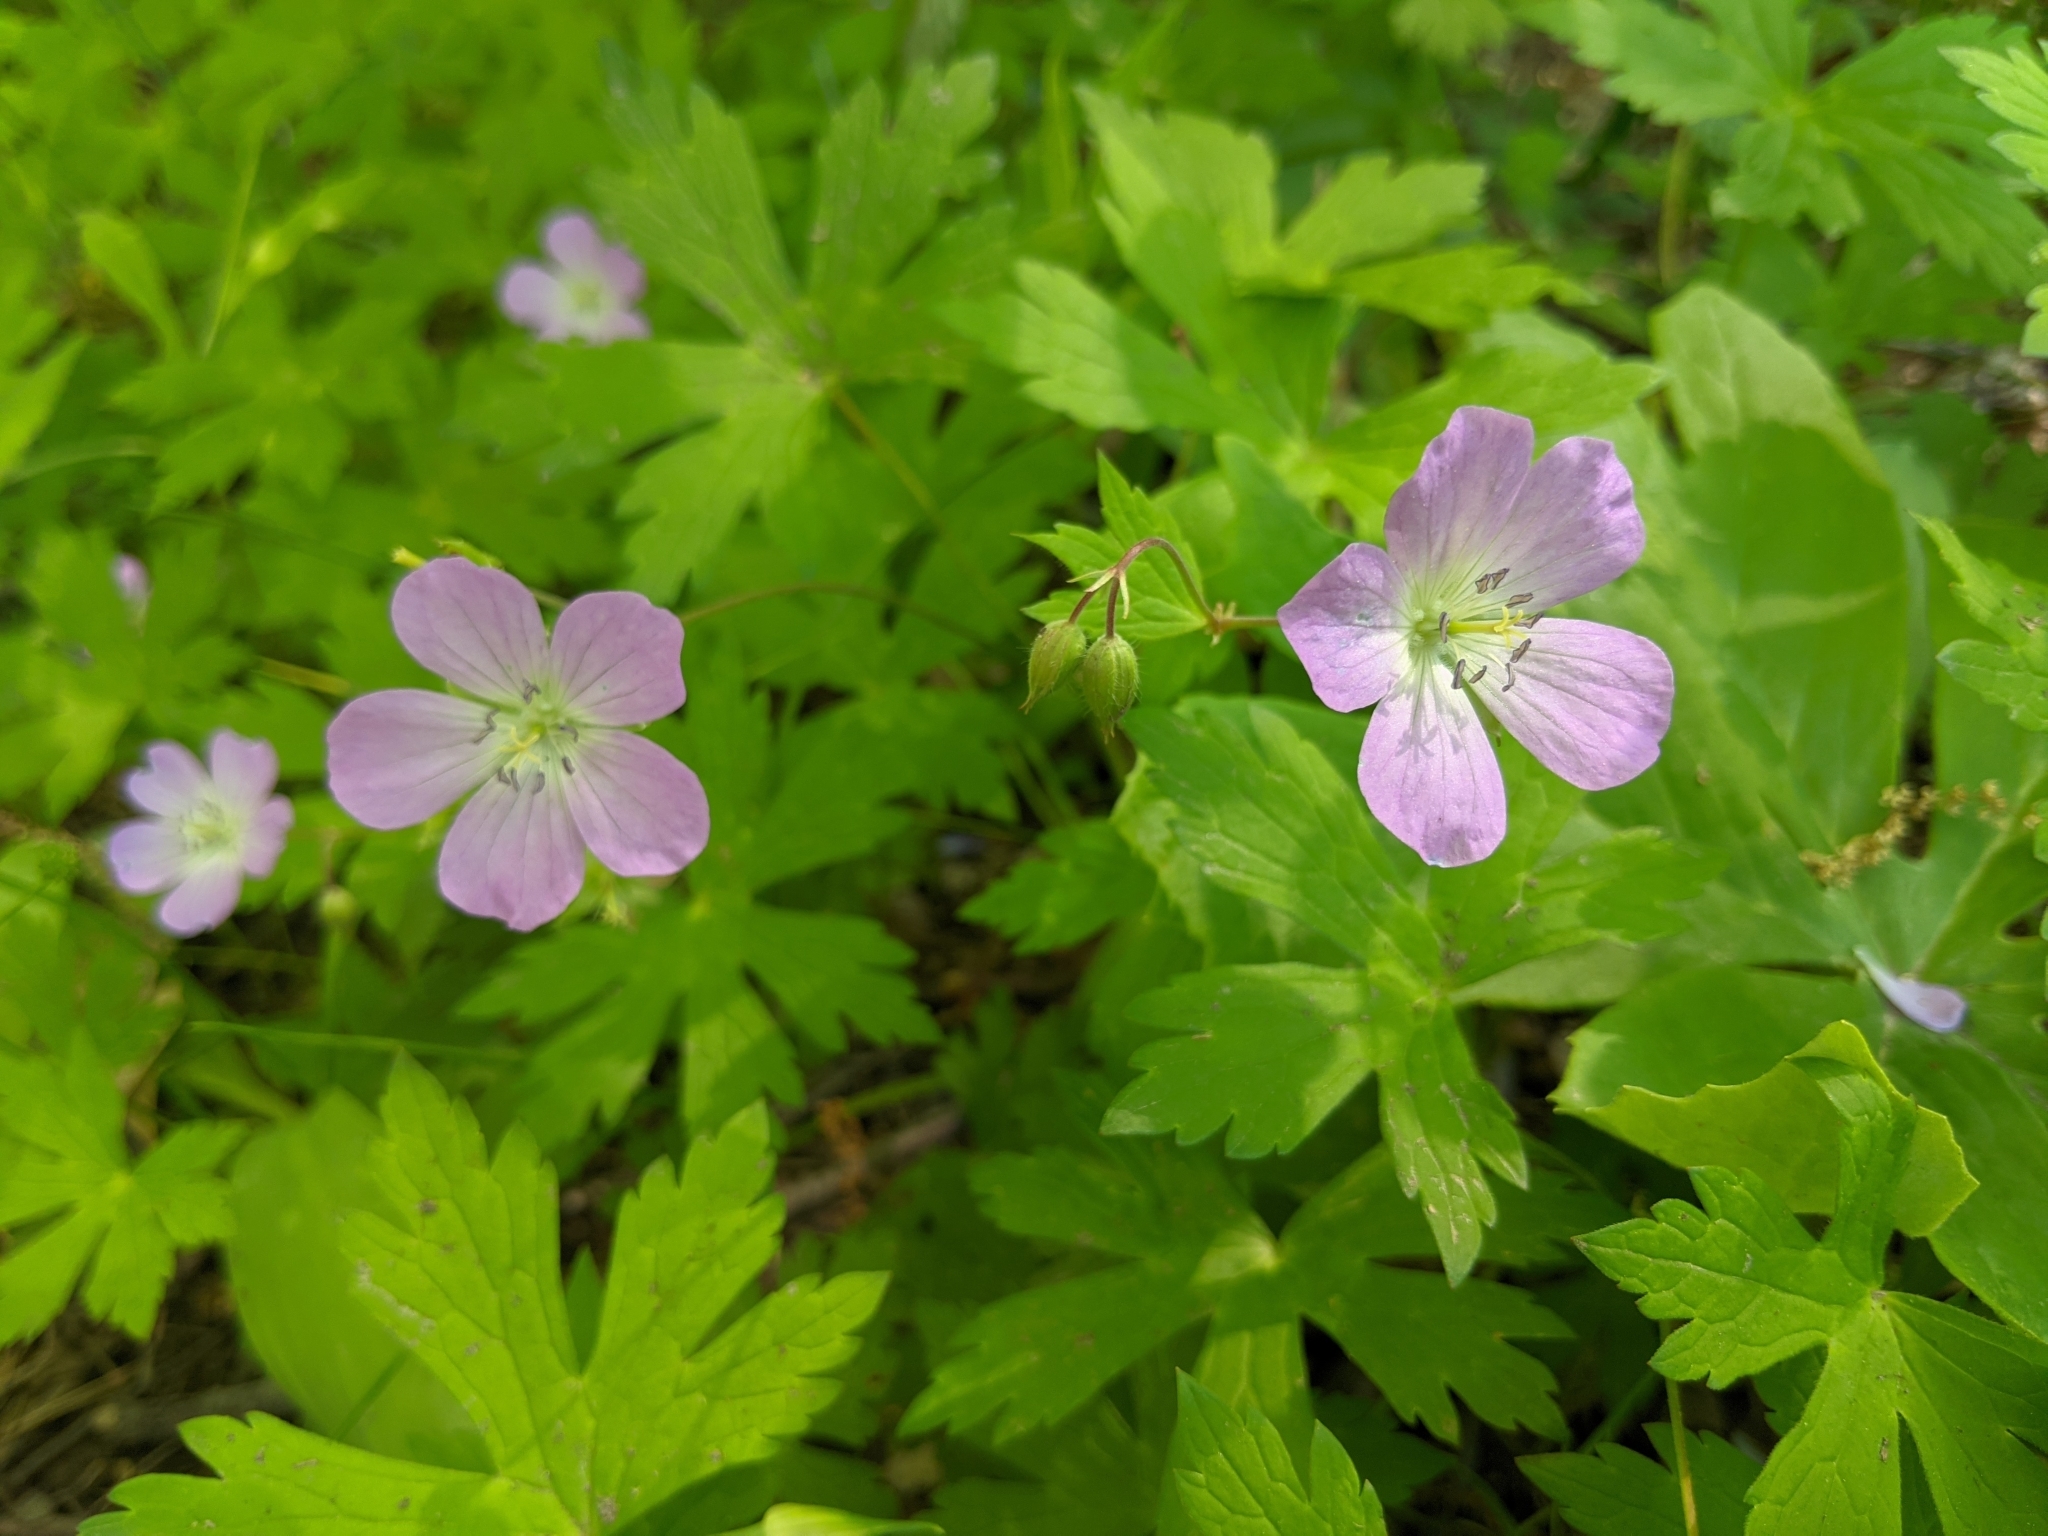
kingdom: Plantae
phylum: Tracheophyta
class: Magnoliopsida
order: Geraniales
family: Geraniaceae
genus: Geranium
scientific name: Geranium maculatum
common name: Spotted geranium
